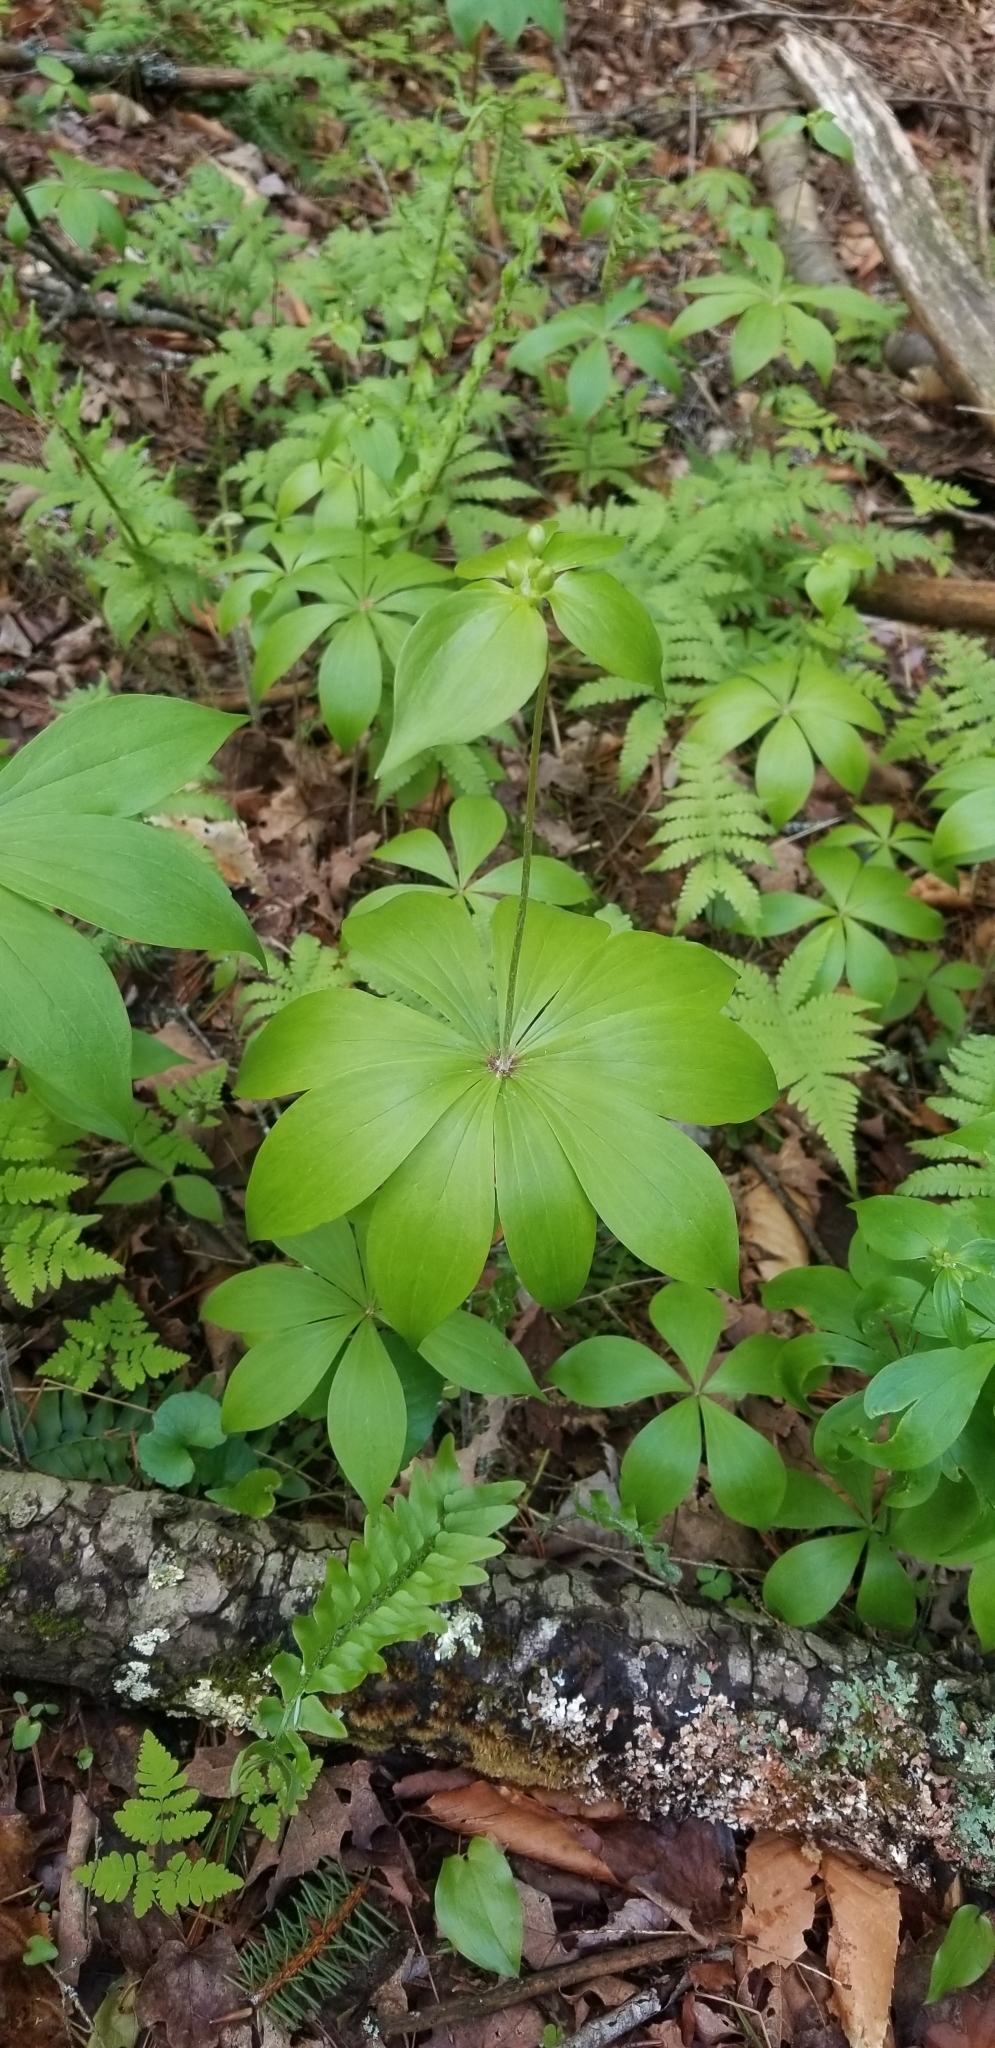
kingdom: Plantae
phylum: Tracheophyta
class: Liliopsida
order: Liliales
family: Liliaceae
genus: Medeola
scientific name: Medeola virginiana
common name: Indian cucumber-root
